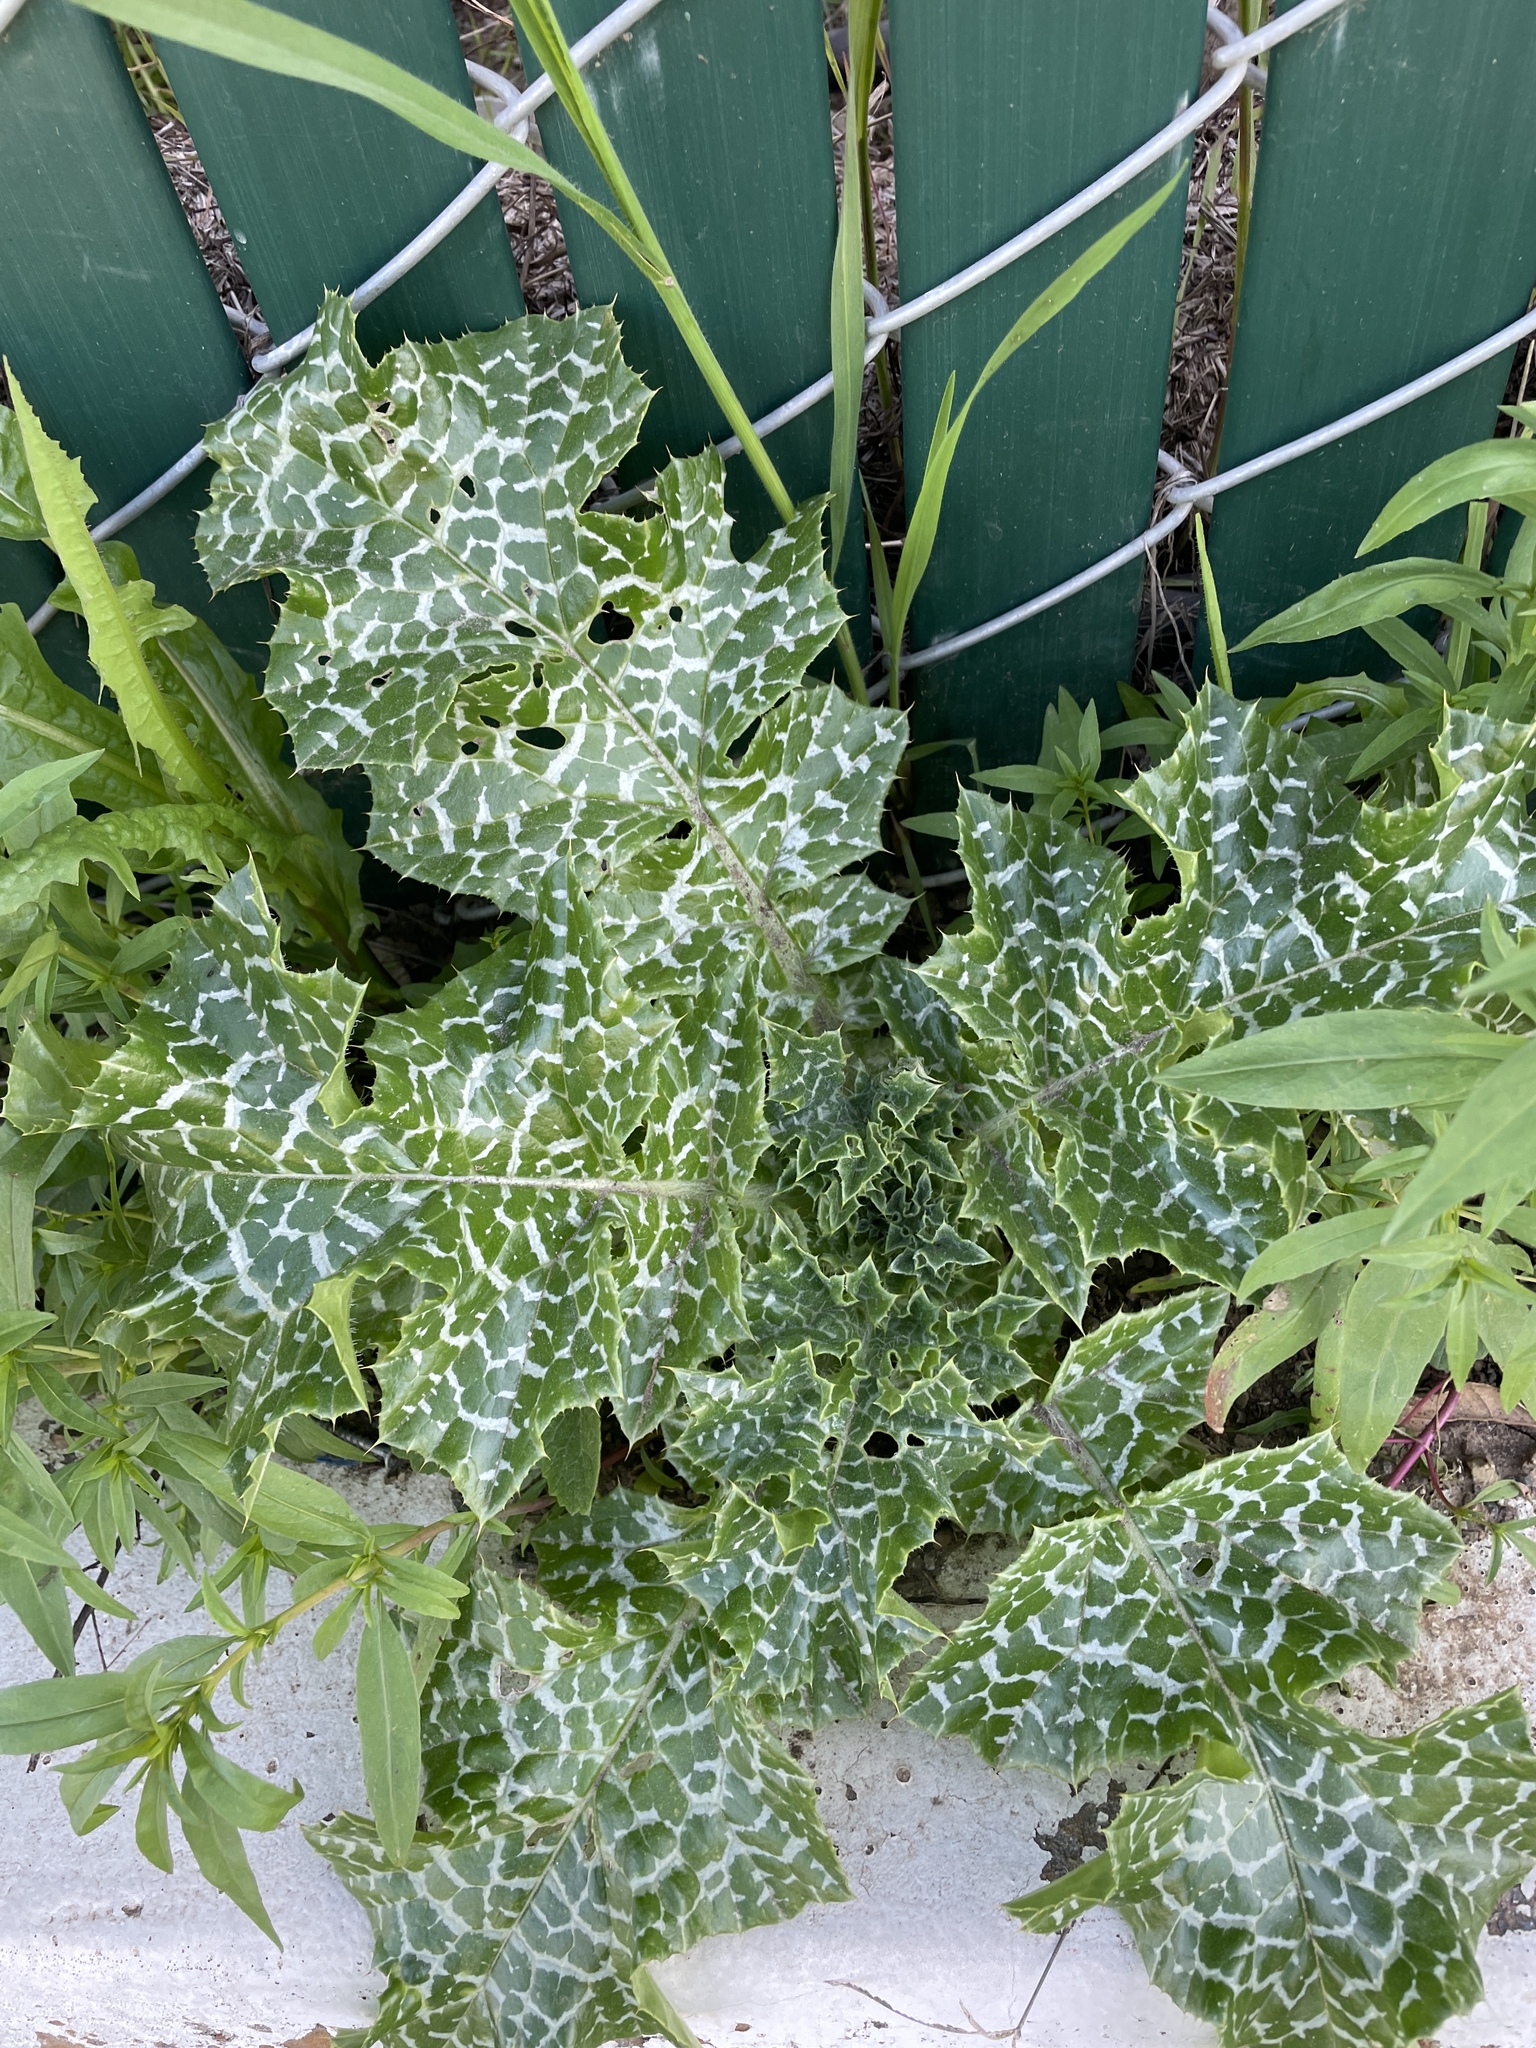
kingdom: Plantae
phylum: Tracheophyta
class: Magnoliopsida
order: Asterales
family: Asteraceae
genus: Silybum
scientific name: Silybum marianum
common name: Milk thistle
